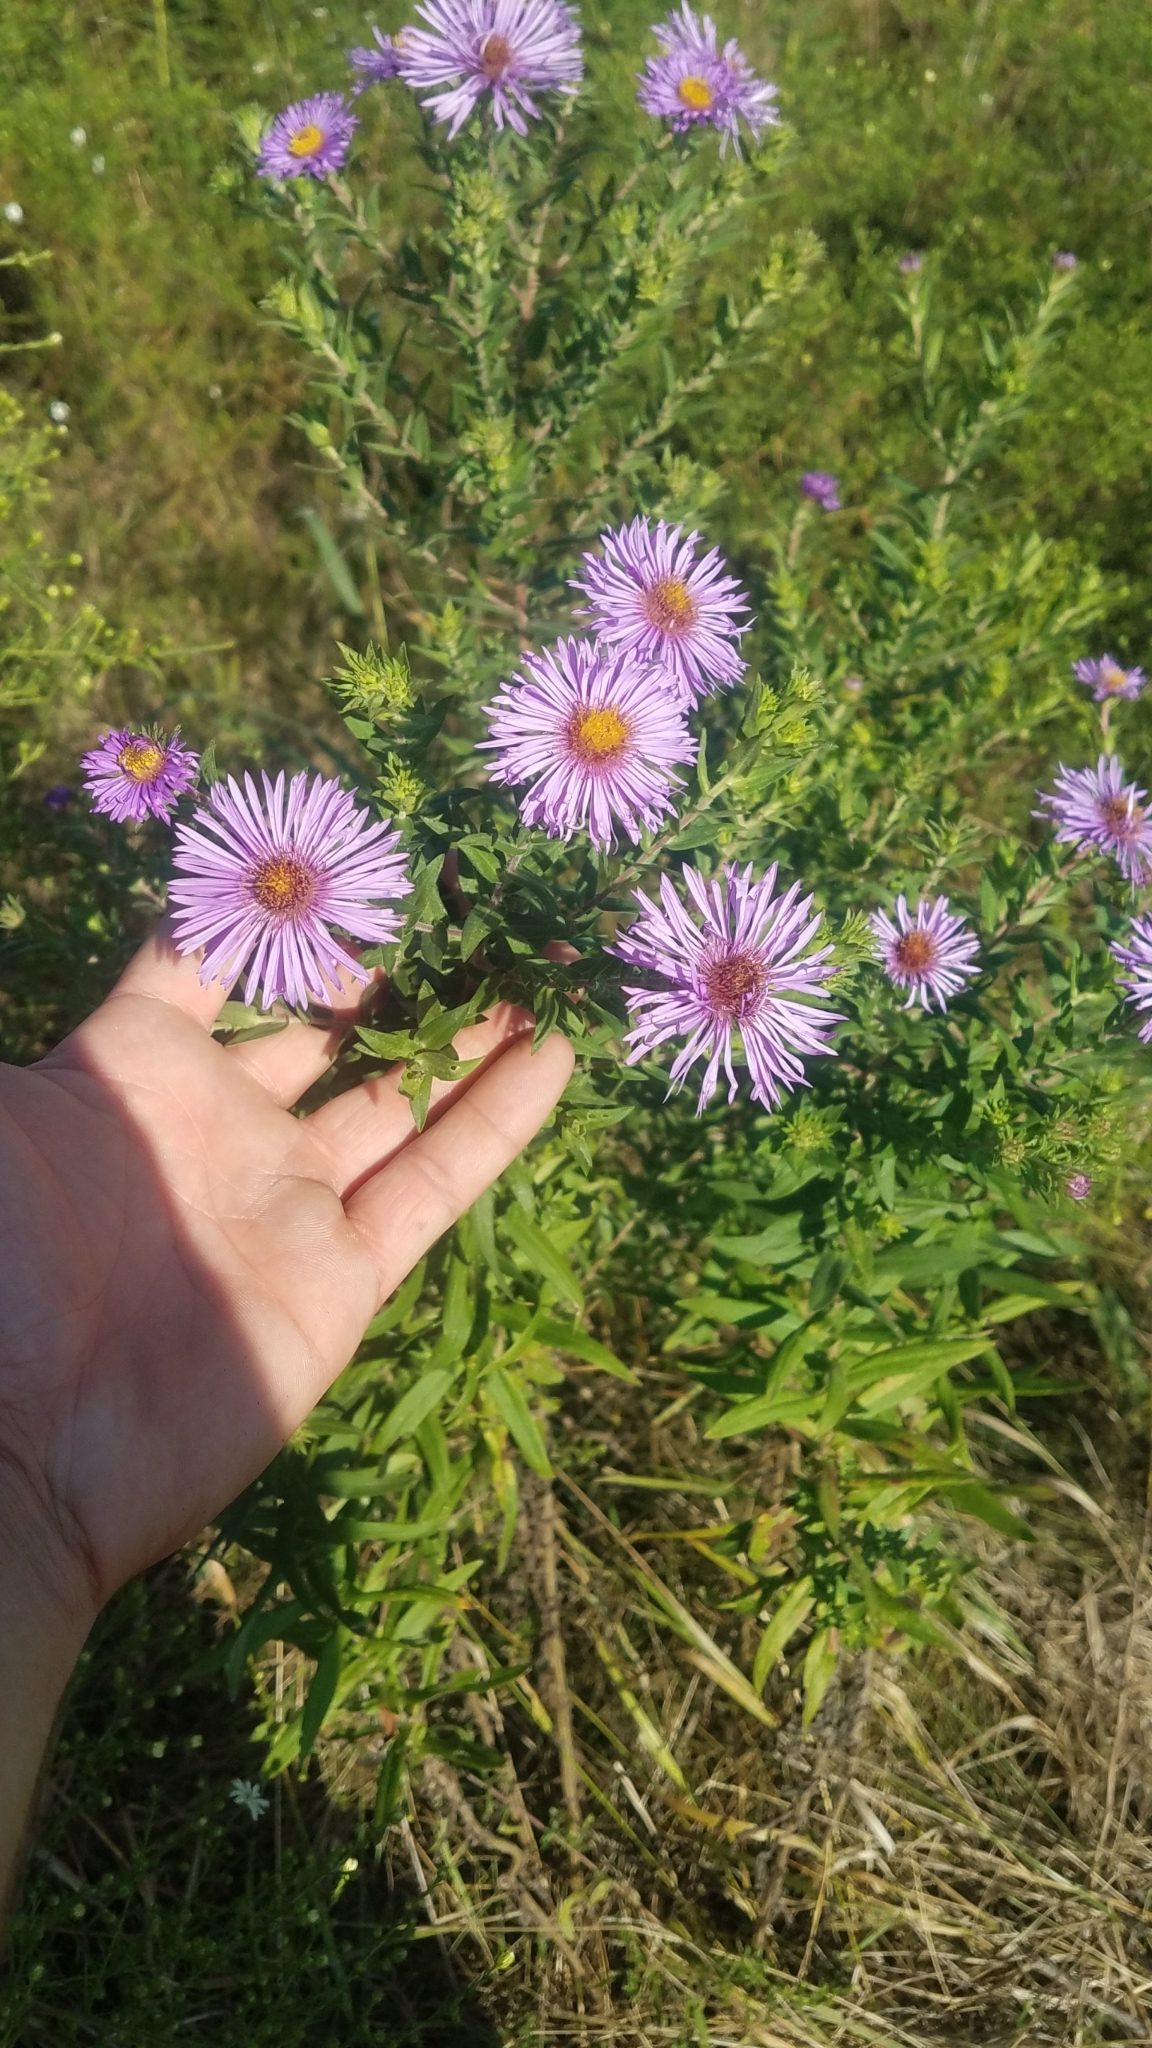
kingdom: Plantae
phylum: Tracheophyta
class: Magnoliopsida
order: Asterales
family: Asteraceae
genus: Symphyotrichum
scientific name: Symphyotrichum novae-angliae
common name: Michaelmas daisy
